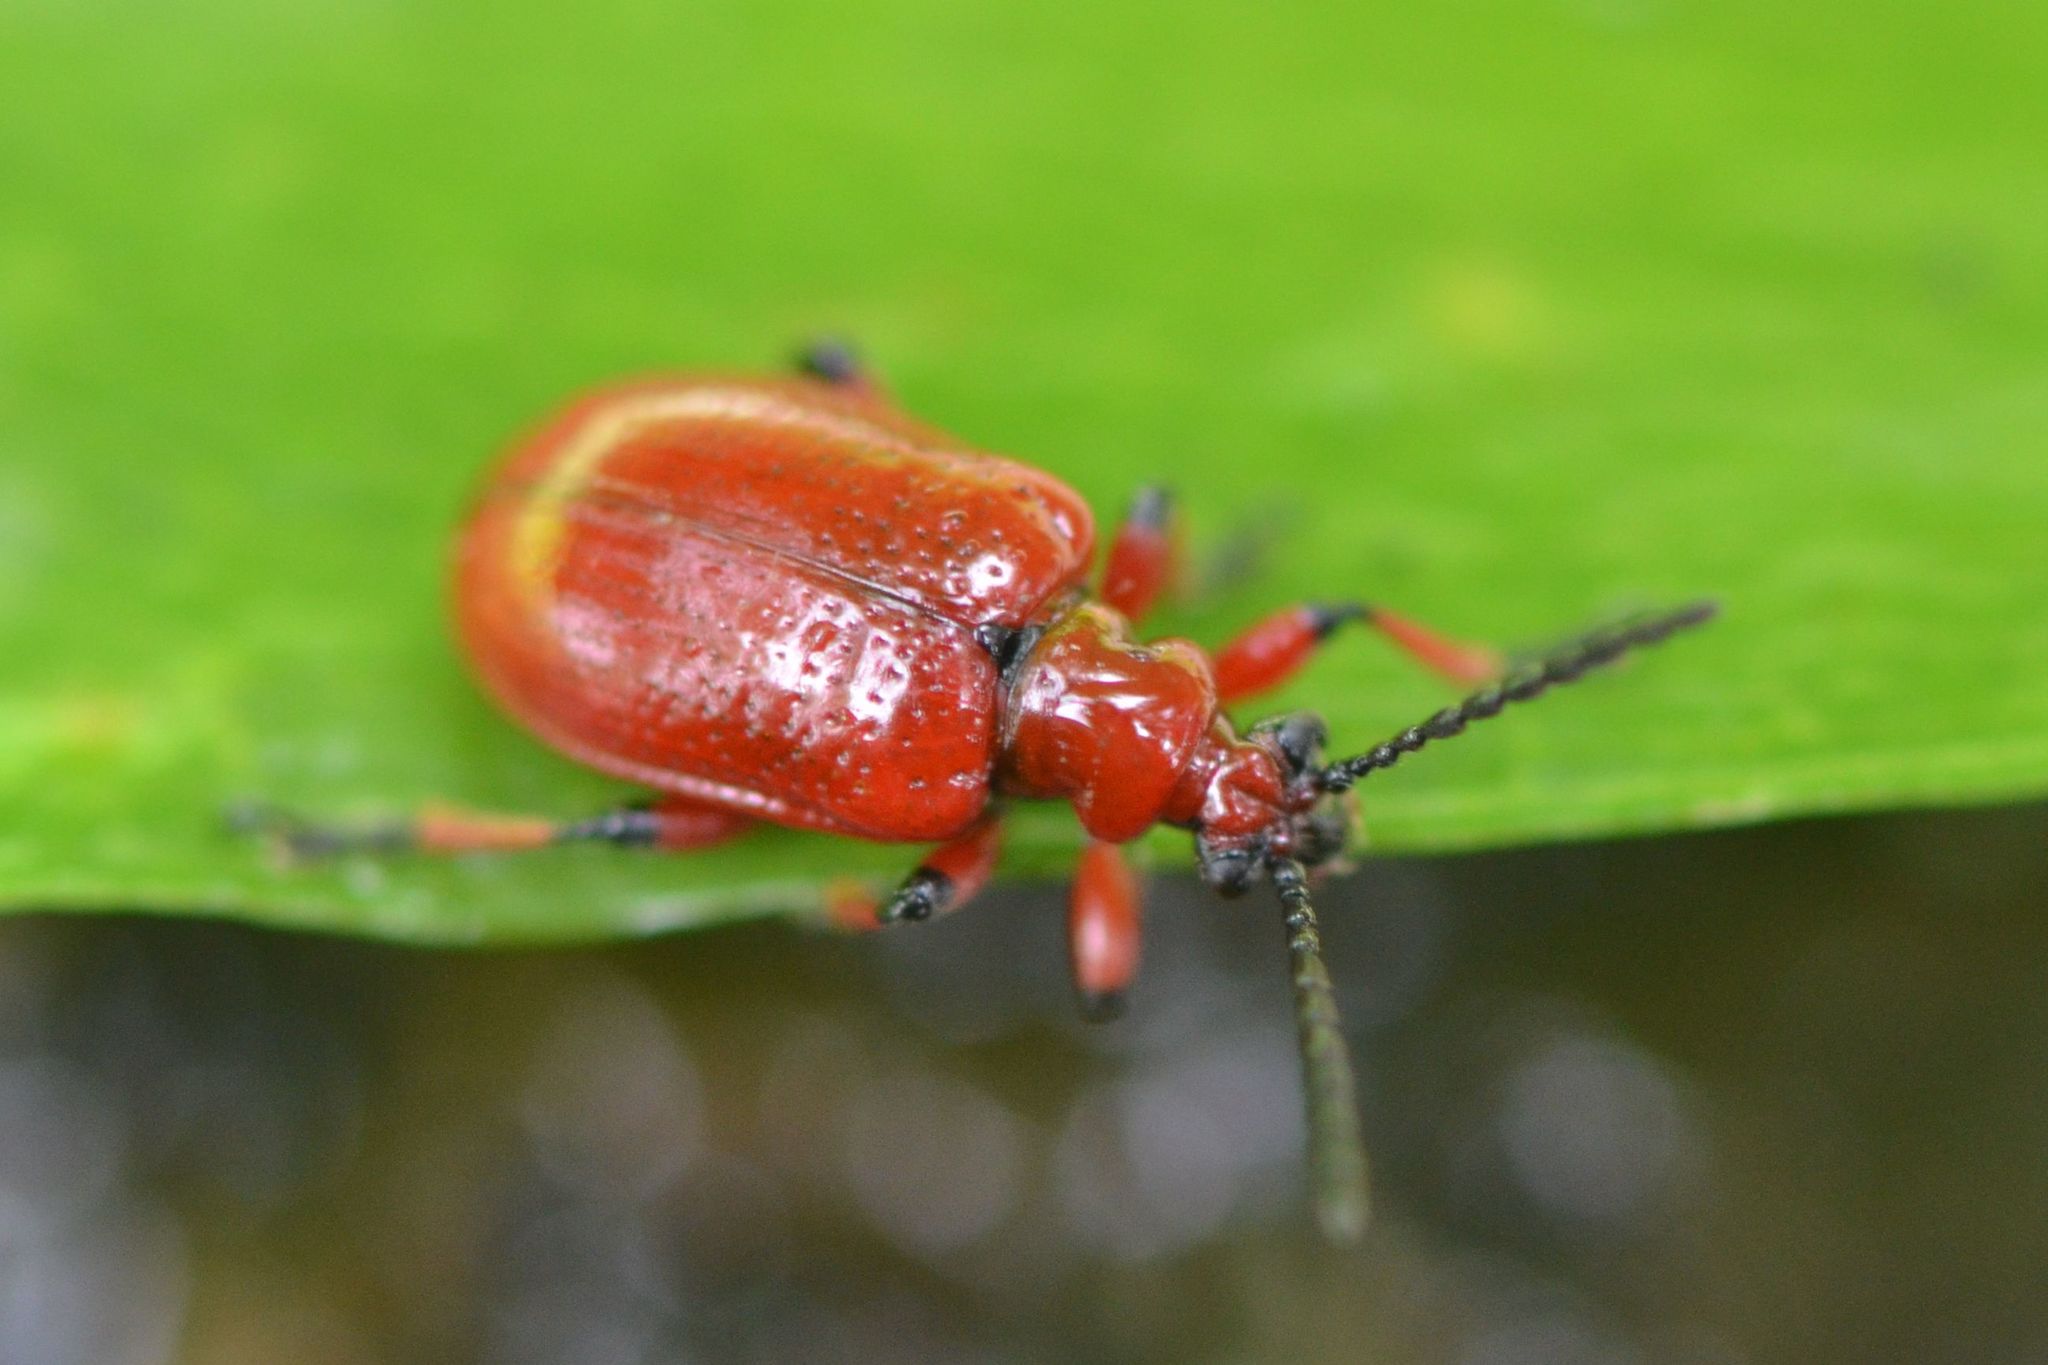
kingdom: Animalia
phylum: Arthropoda
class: Insecta
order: Coleoptera
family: Chrysomelidae
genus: Lilioceris
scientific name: Lilioceris merdigera
